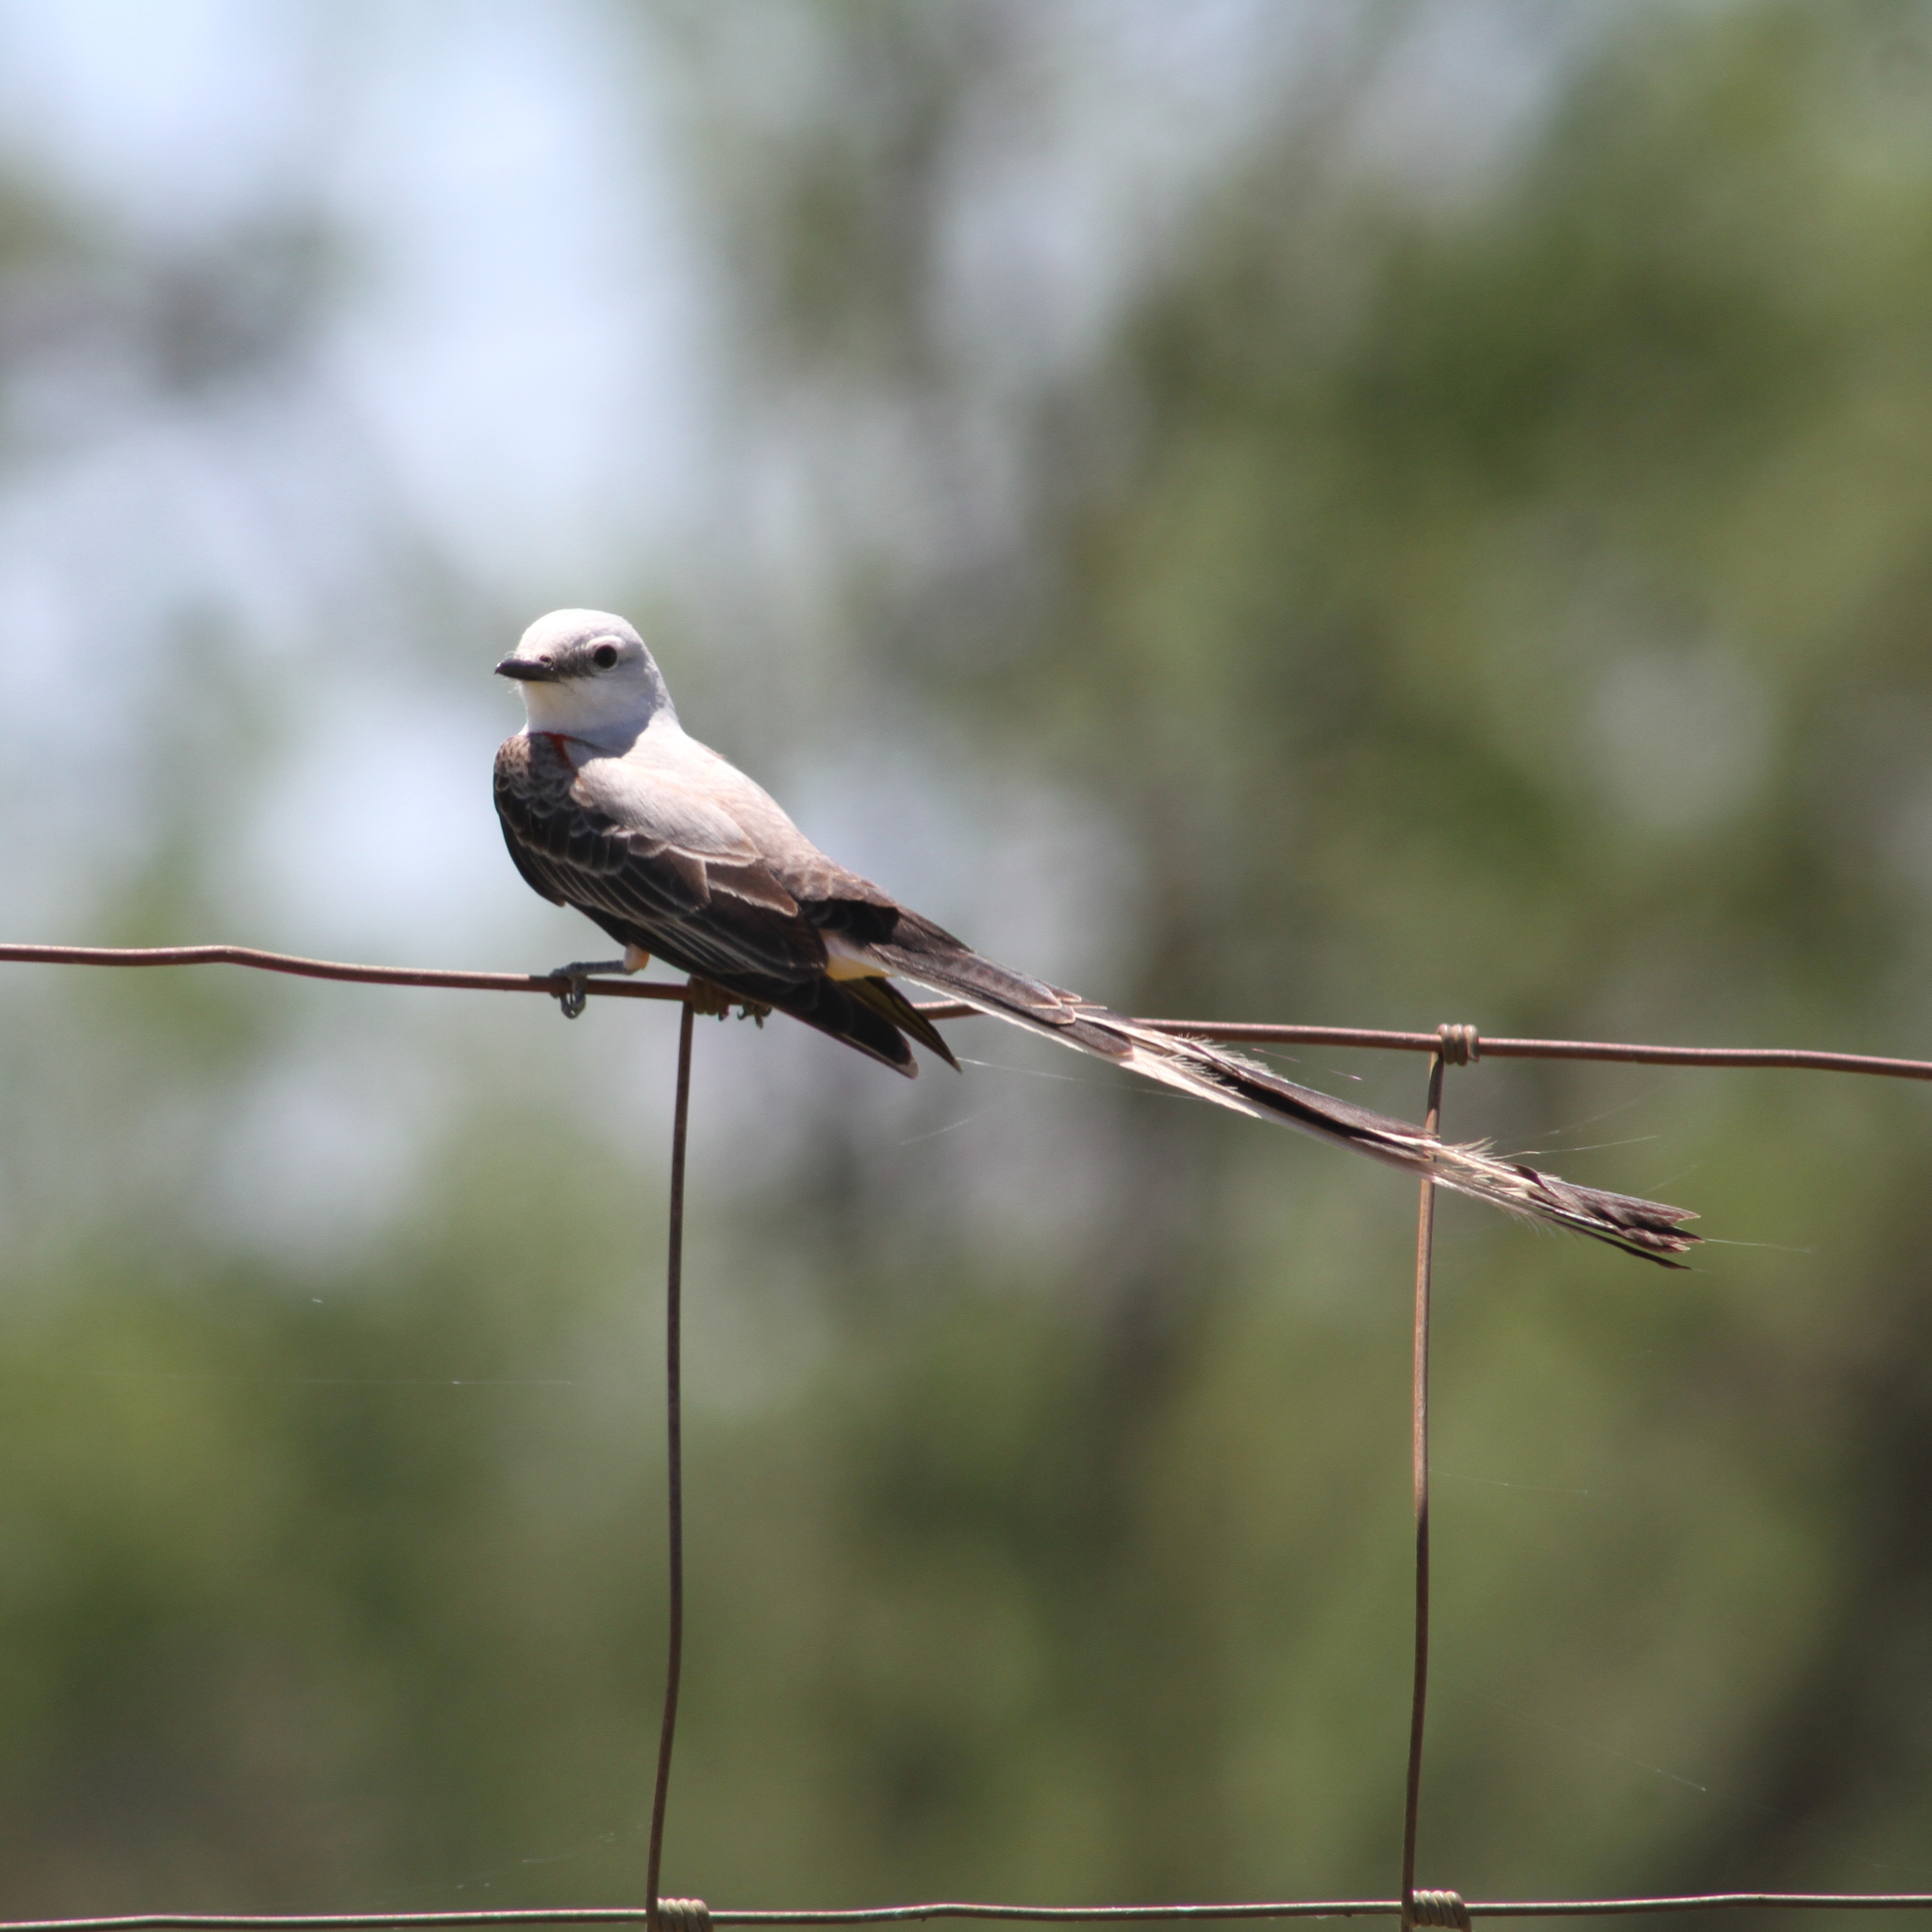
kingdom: Animalia
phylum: Chordata
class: Aves
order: Passeriformes
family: Tyrannidae
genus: Tyrannus
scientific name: Tyrannus forficatus
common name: Scissor-tailed flycatcher
